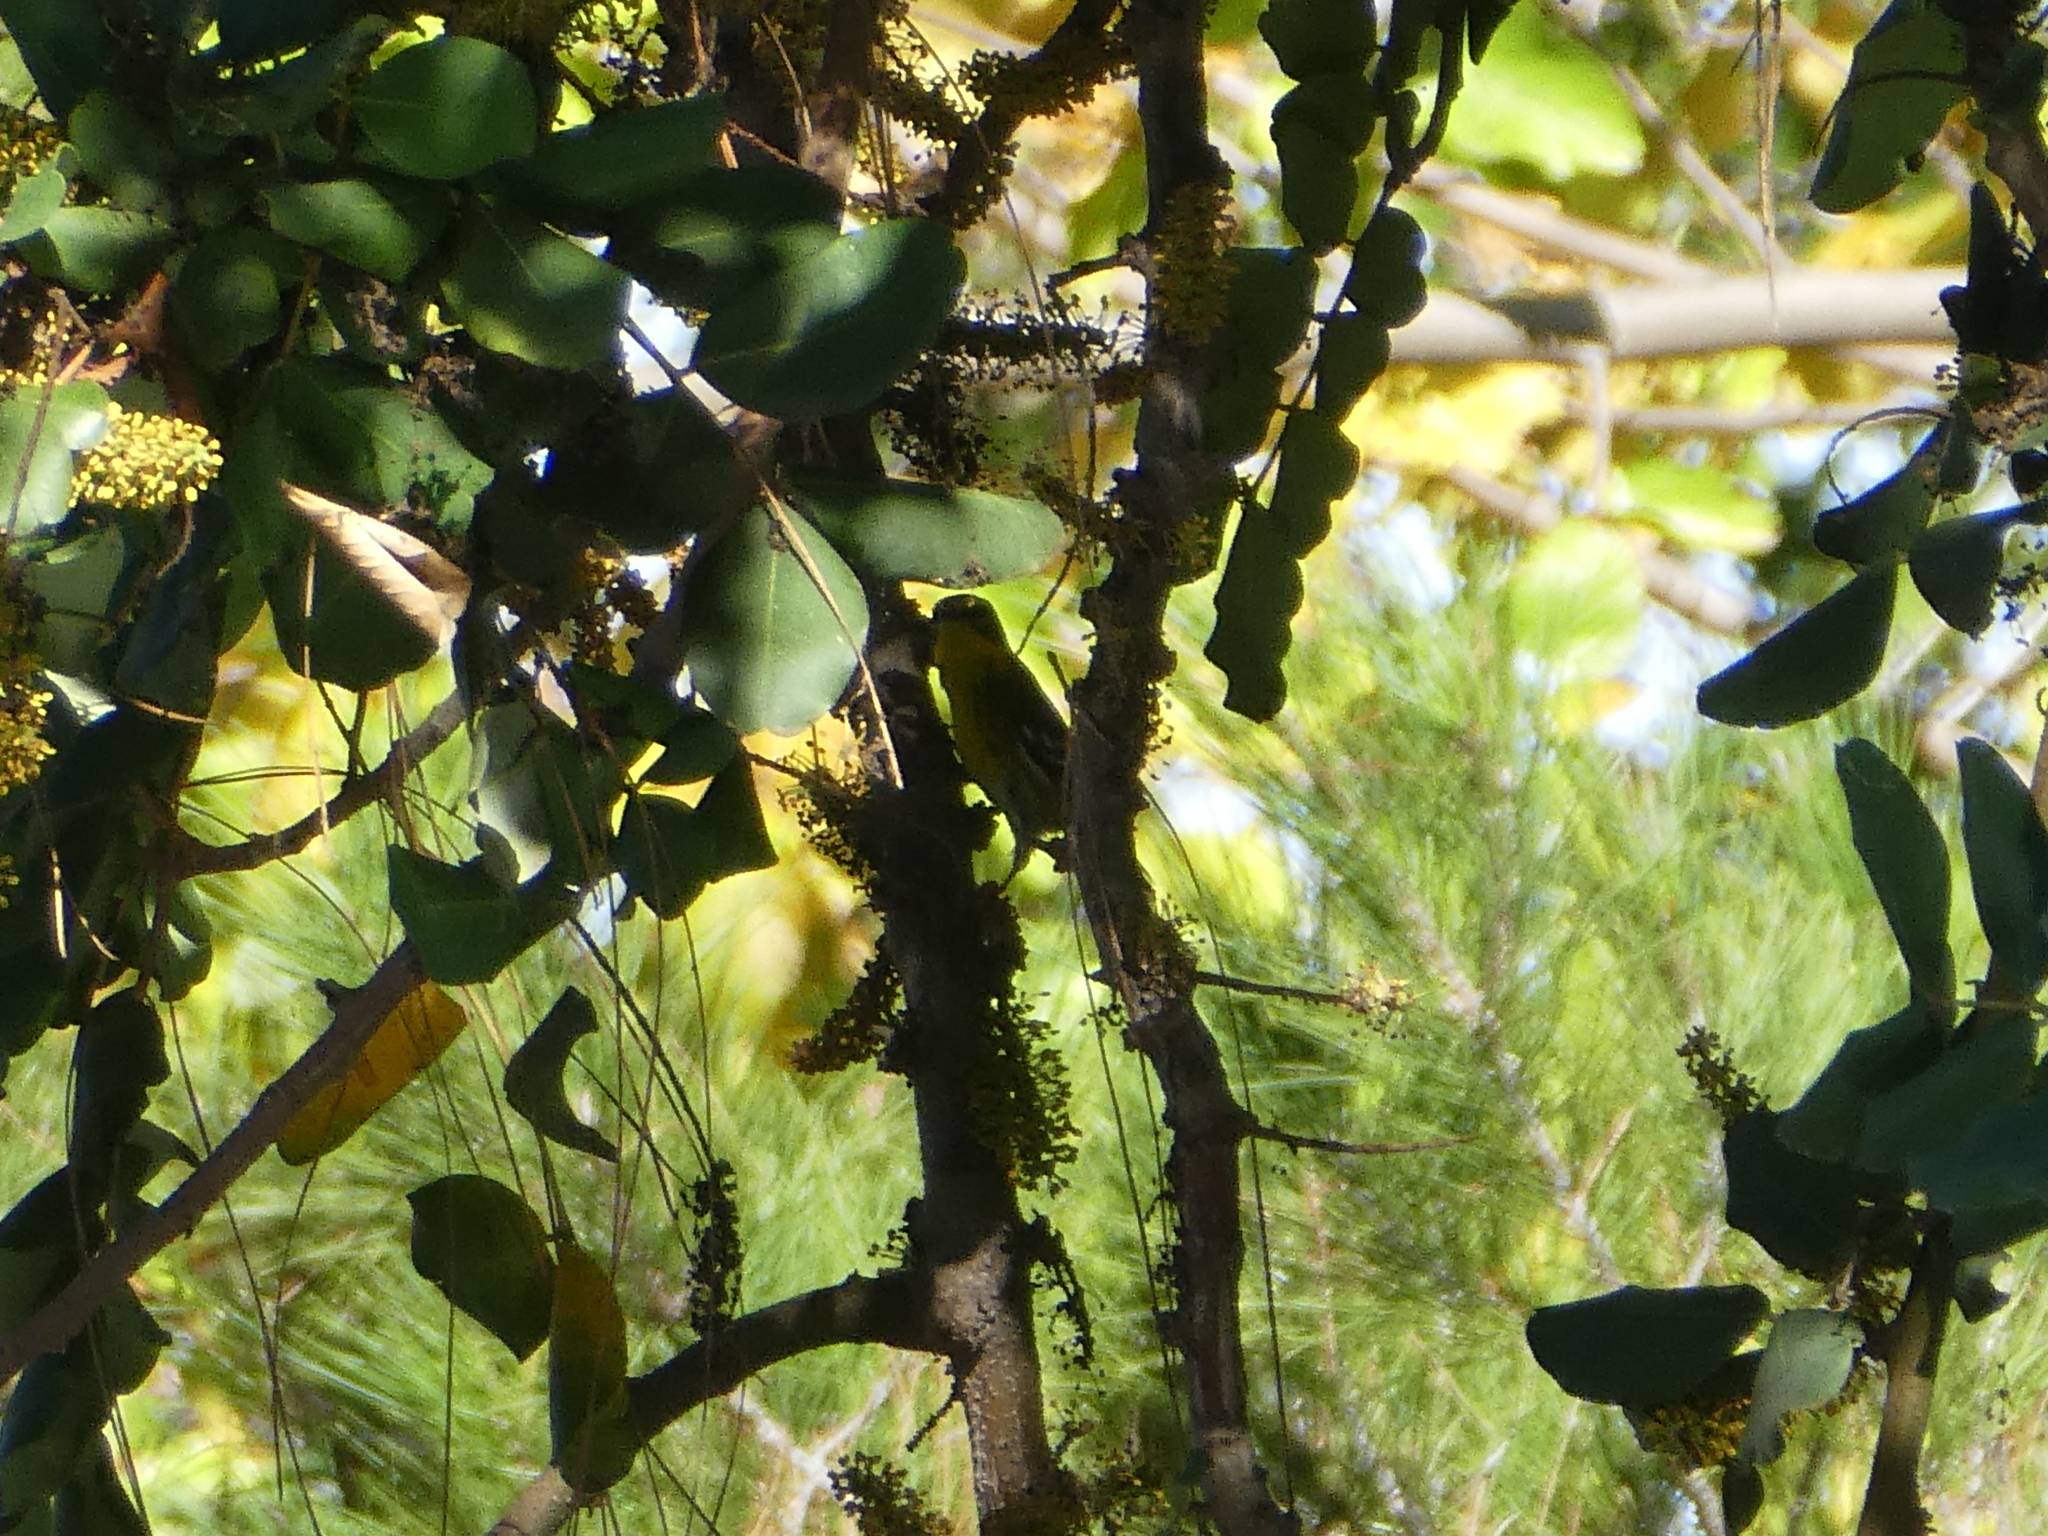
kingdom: Animalia
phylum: Chordata
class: Aves
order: Passeriformes
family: Parulidae
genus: Setophaga
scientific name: Setophaga townsendi
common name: Townsend's warbler
